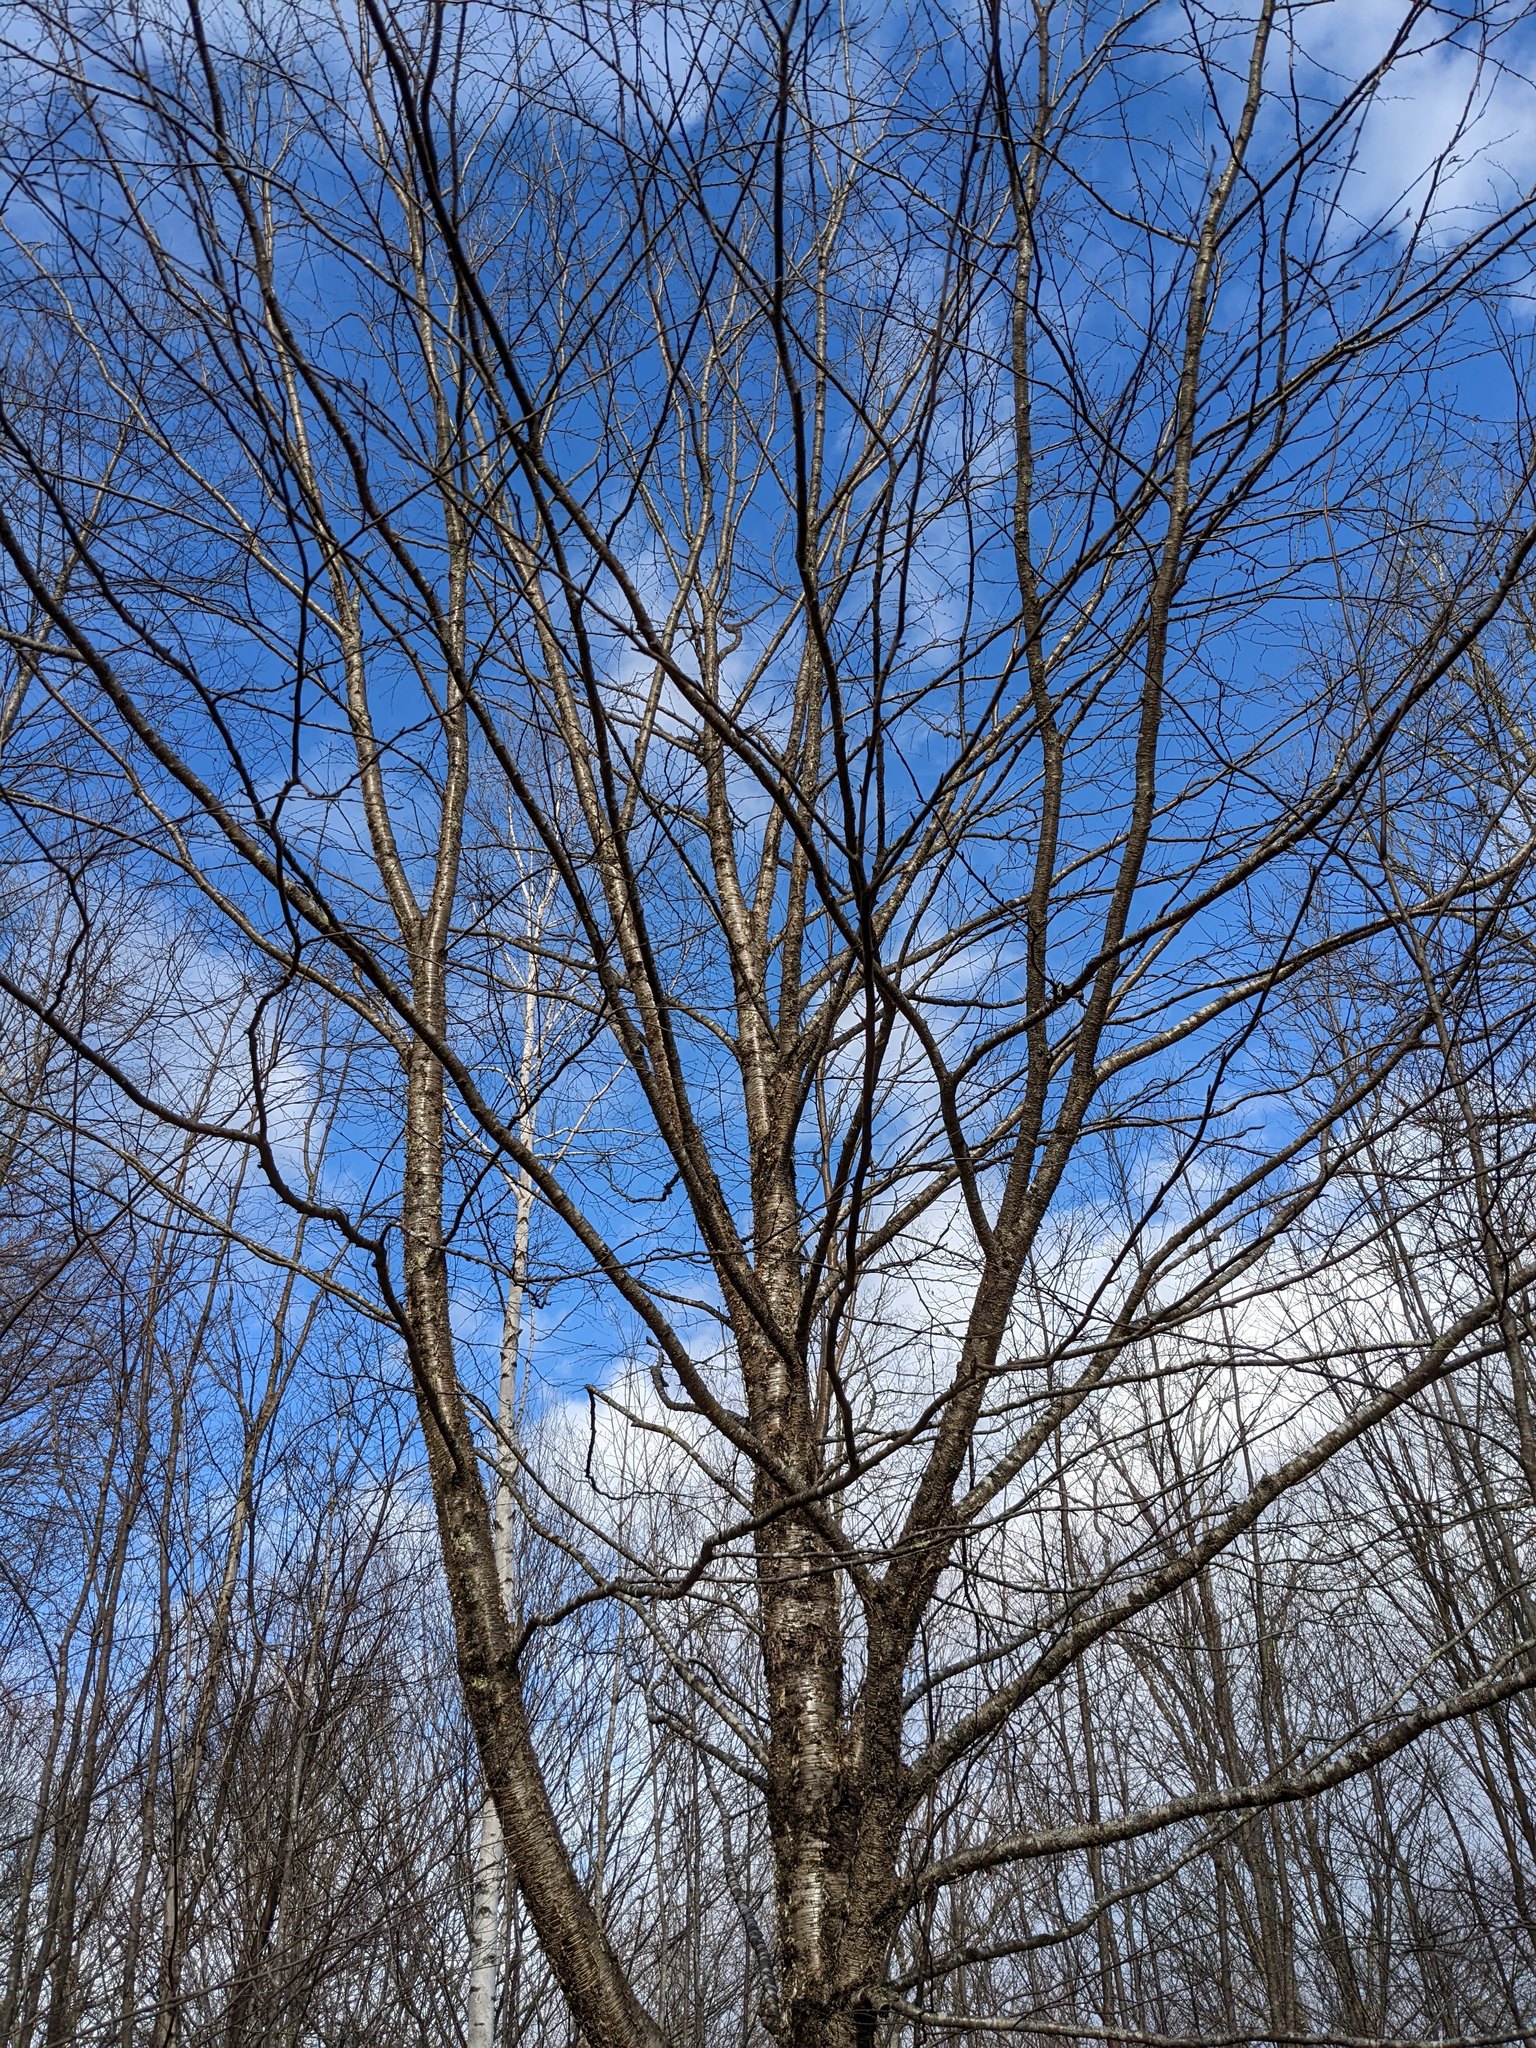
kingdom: Plantae
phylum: Tracheophyta
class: Magnoliopsida
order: Fagales
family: Betulaceae
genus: Betula
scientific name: Betula alleghaniensis
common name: Yellow birch
